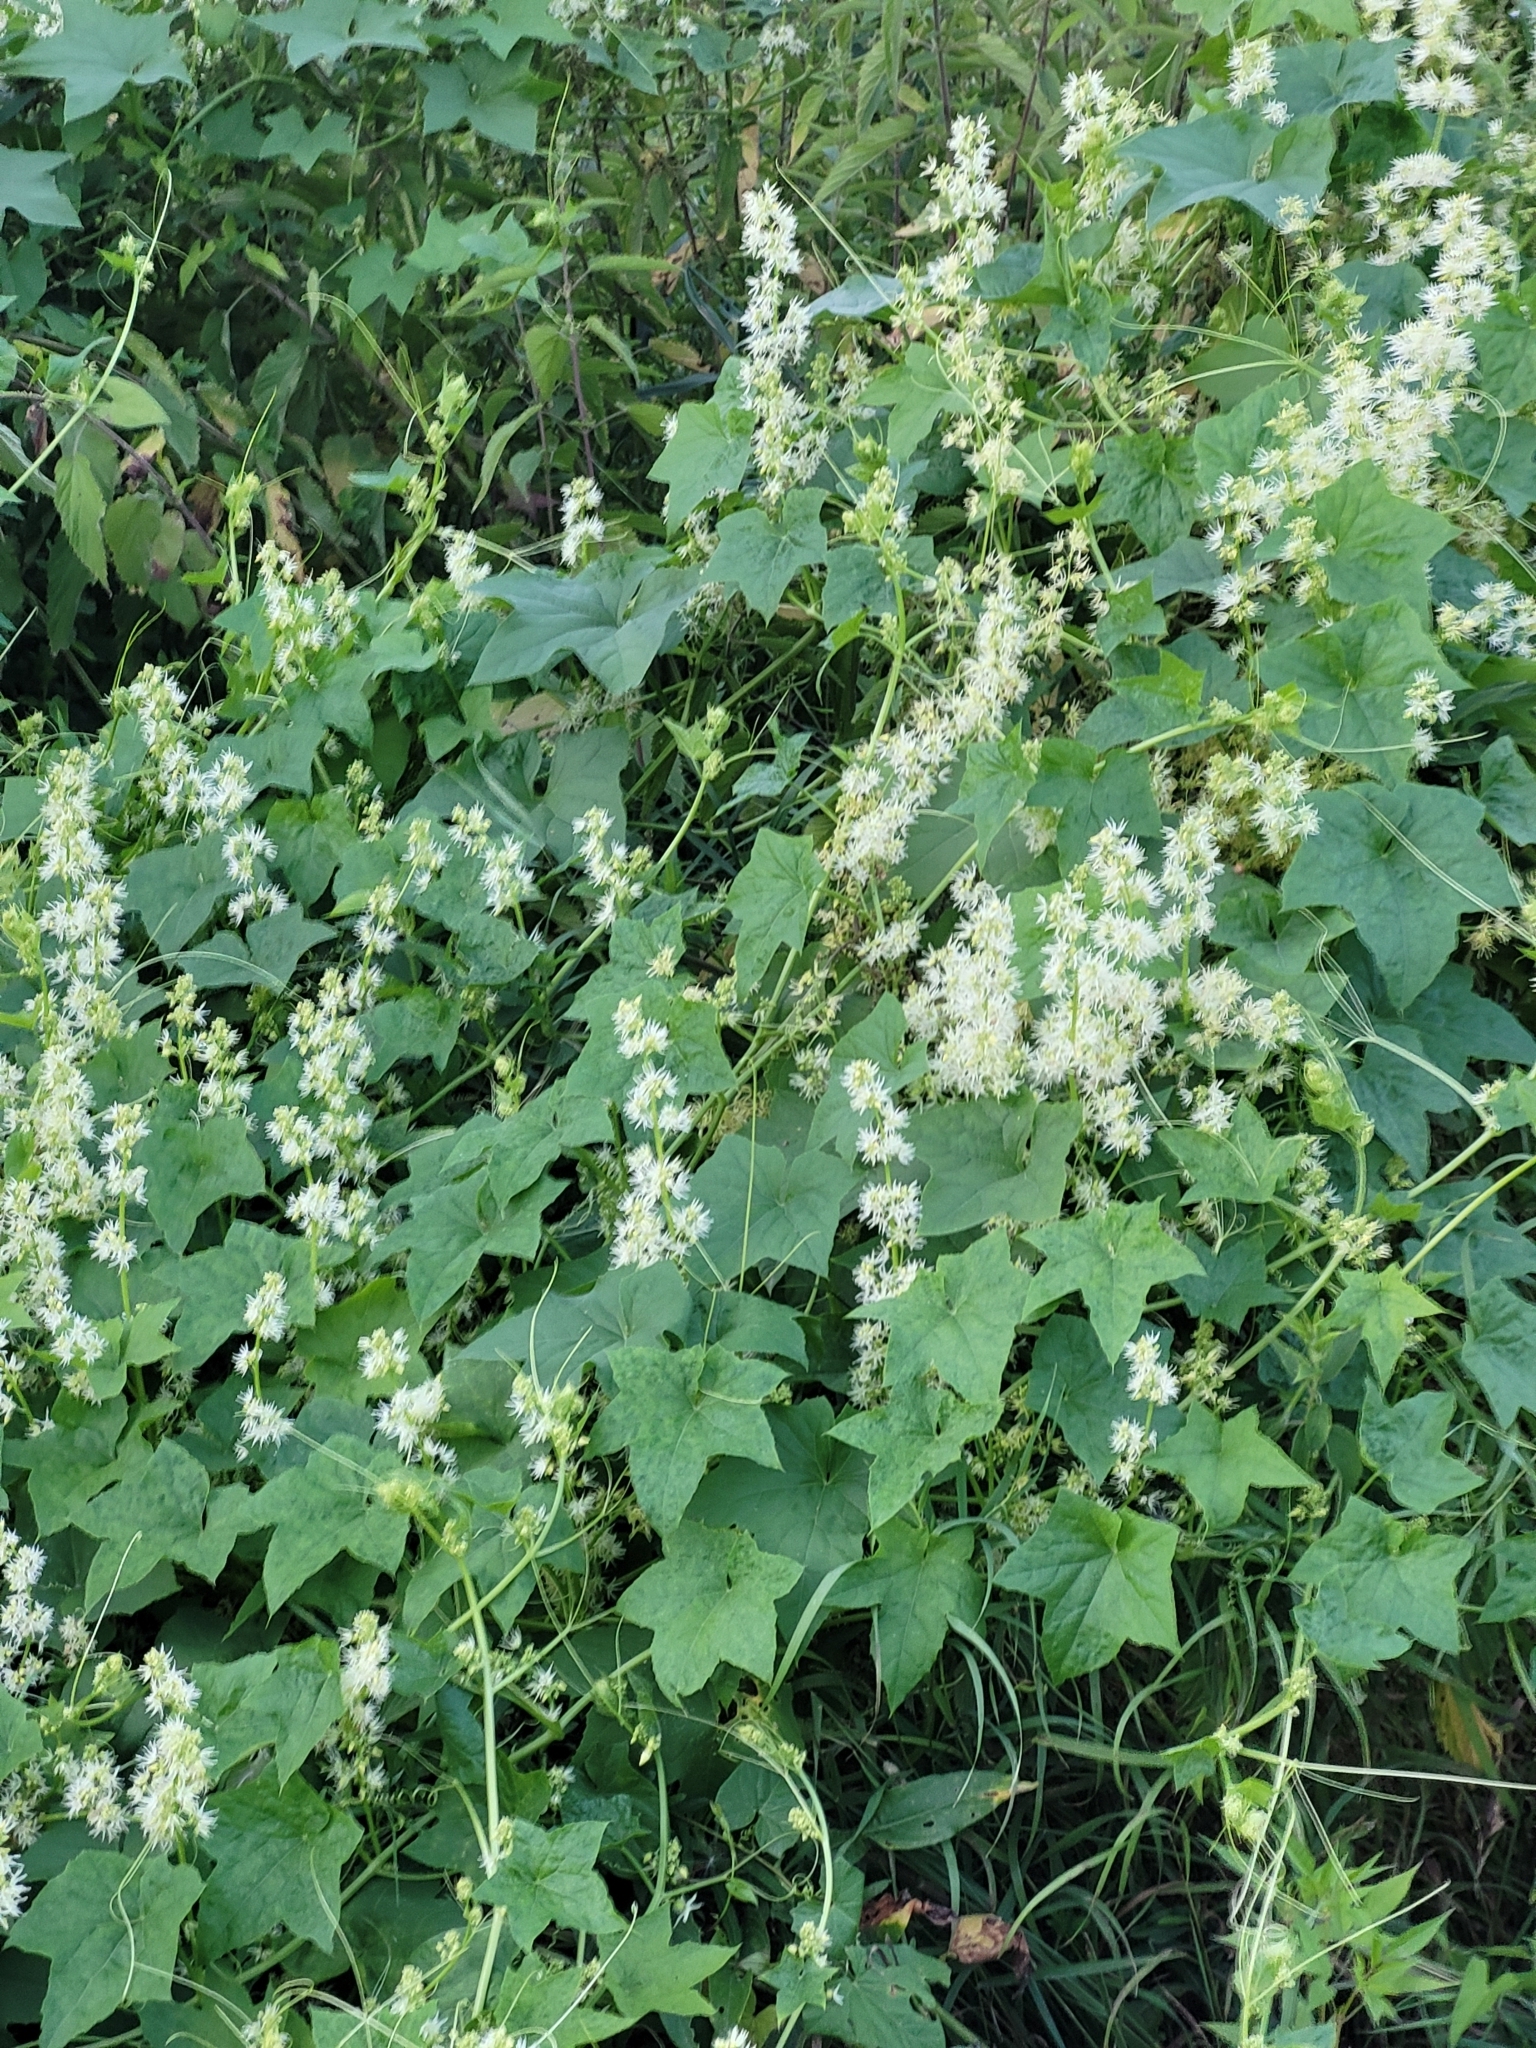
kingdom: Plantae
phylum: Tracheophyta
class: Magnoliopsida
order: Cucurbitales
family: Cucurbitaceae
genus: Echinocystis
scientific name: Echinocystis lobata
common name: Wild cucumber
